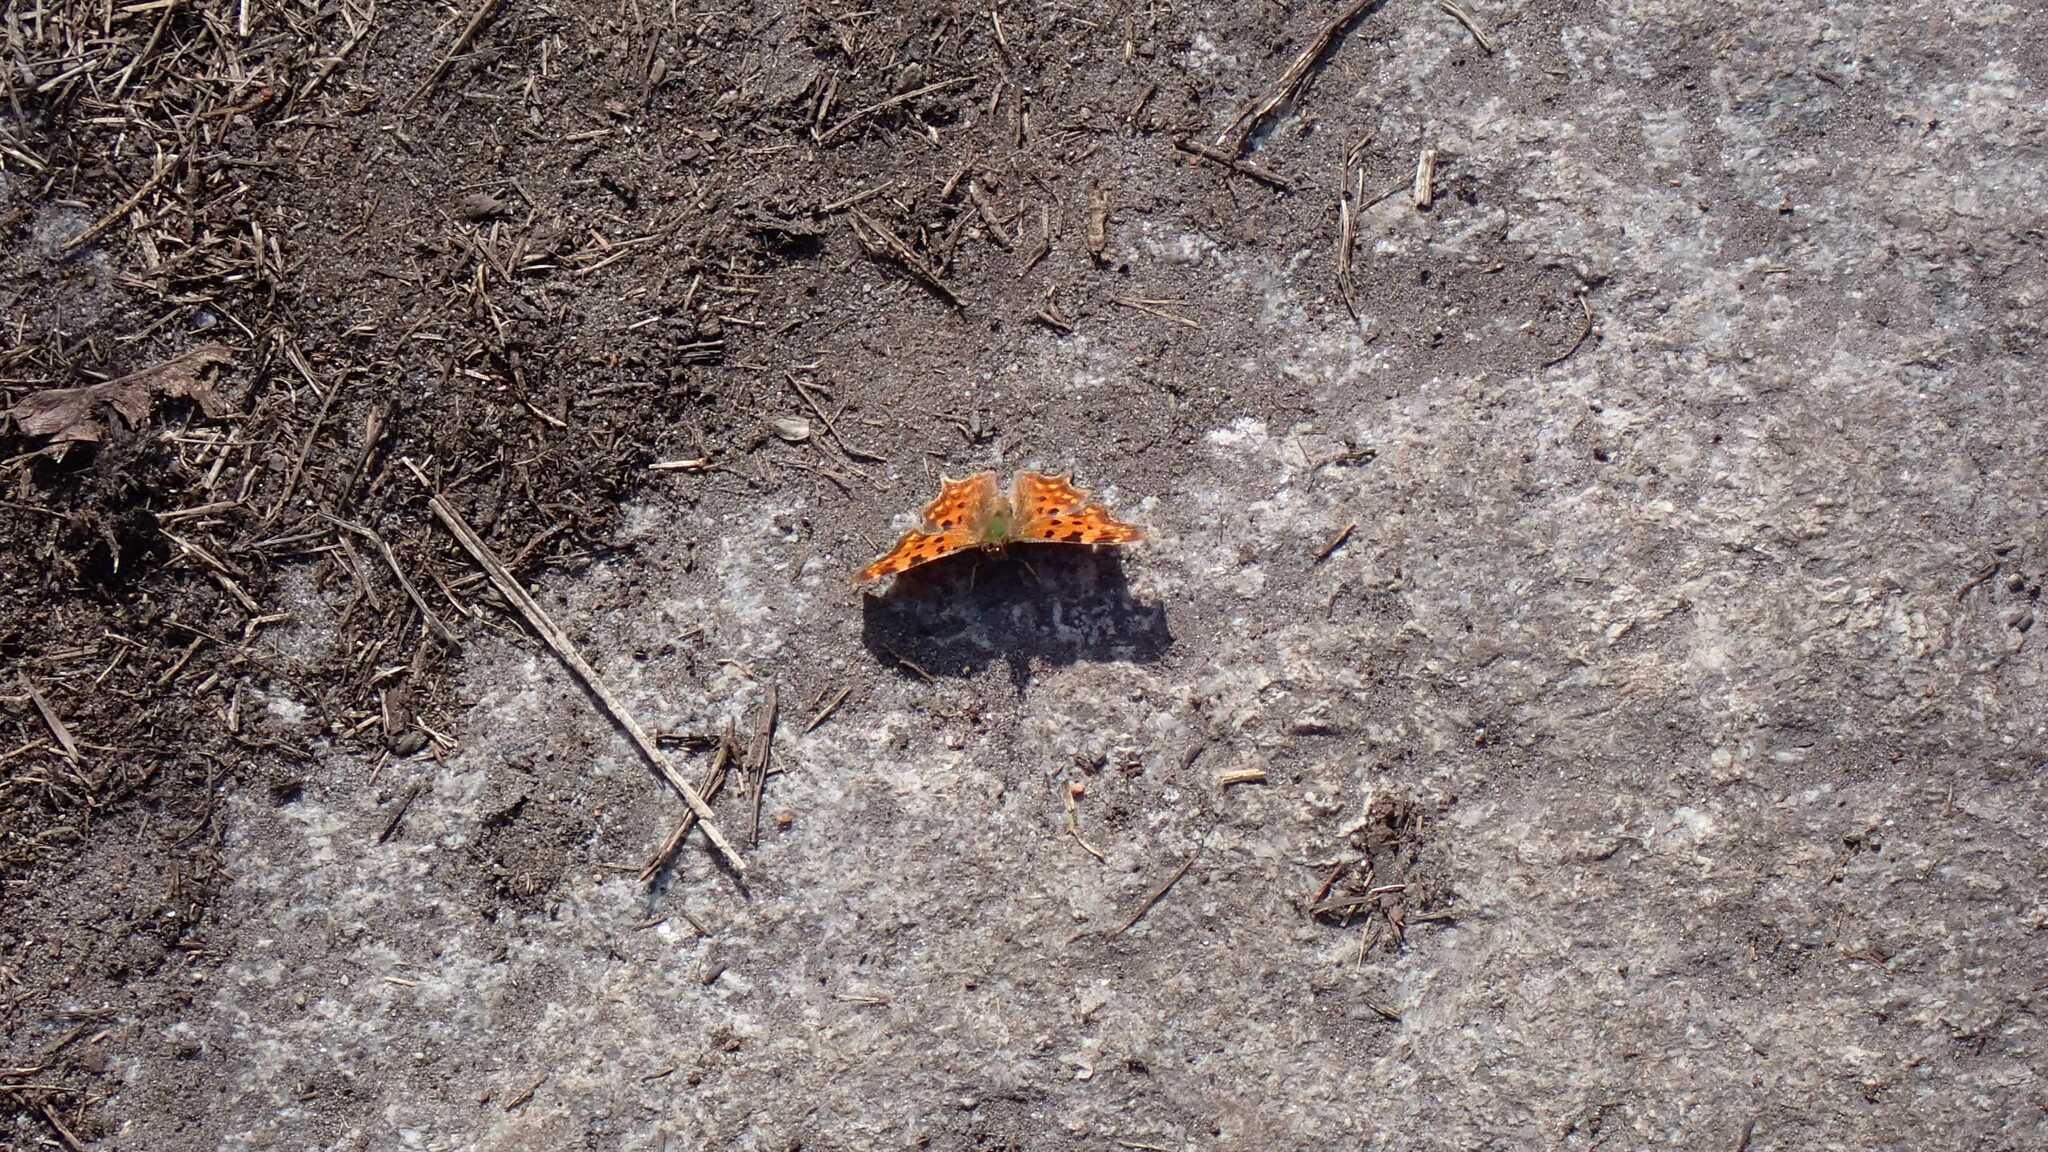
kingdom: Animalia
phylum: Arthropoda
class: Insecta
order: Lepidoptera
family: Nymphalidae
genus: Polygonia
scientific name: Polygonia c-album
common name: Comma
